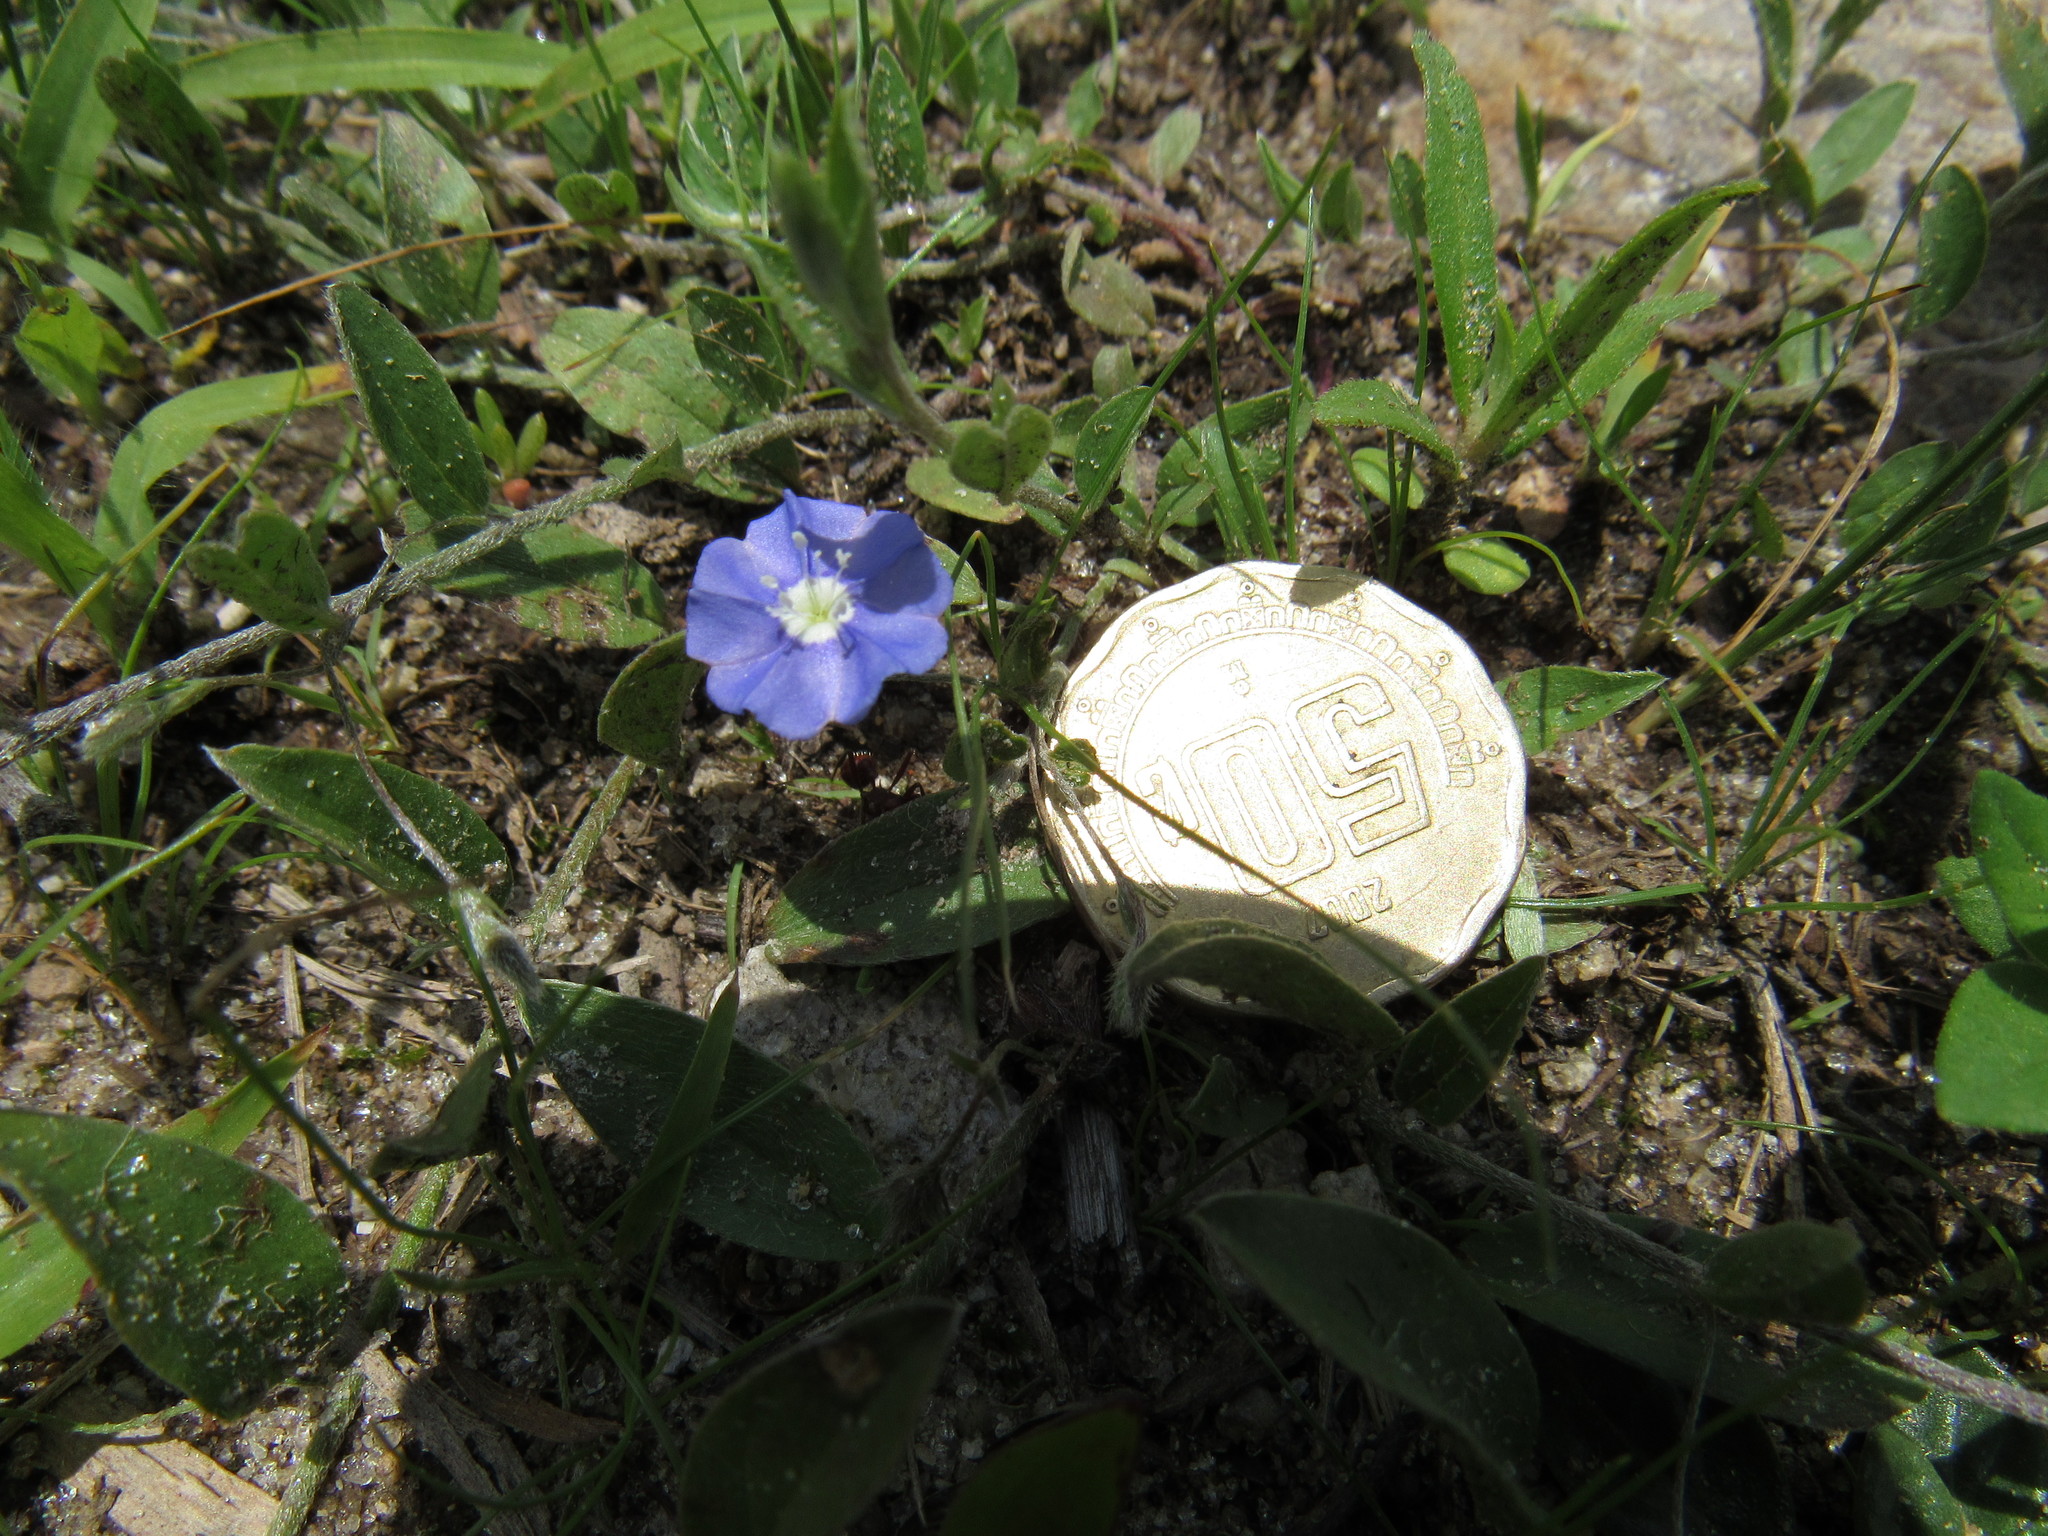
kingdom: Plantae
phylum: Tracheophyta
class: Magnoliopsida
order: Solanales
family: Convolvulaceae
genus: Evolvulus
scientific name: Evolvulus alsinoides
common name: Slender dwarf morning-glory
